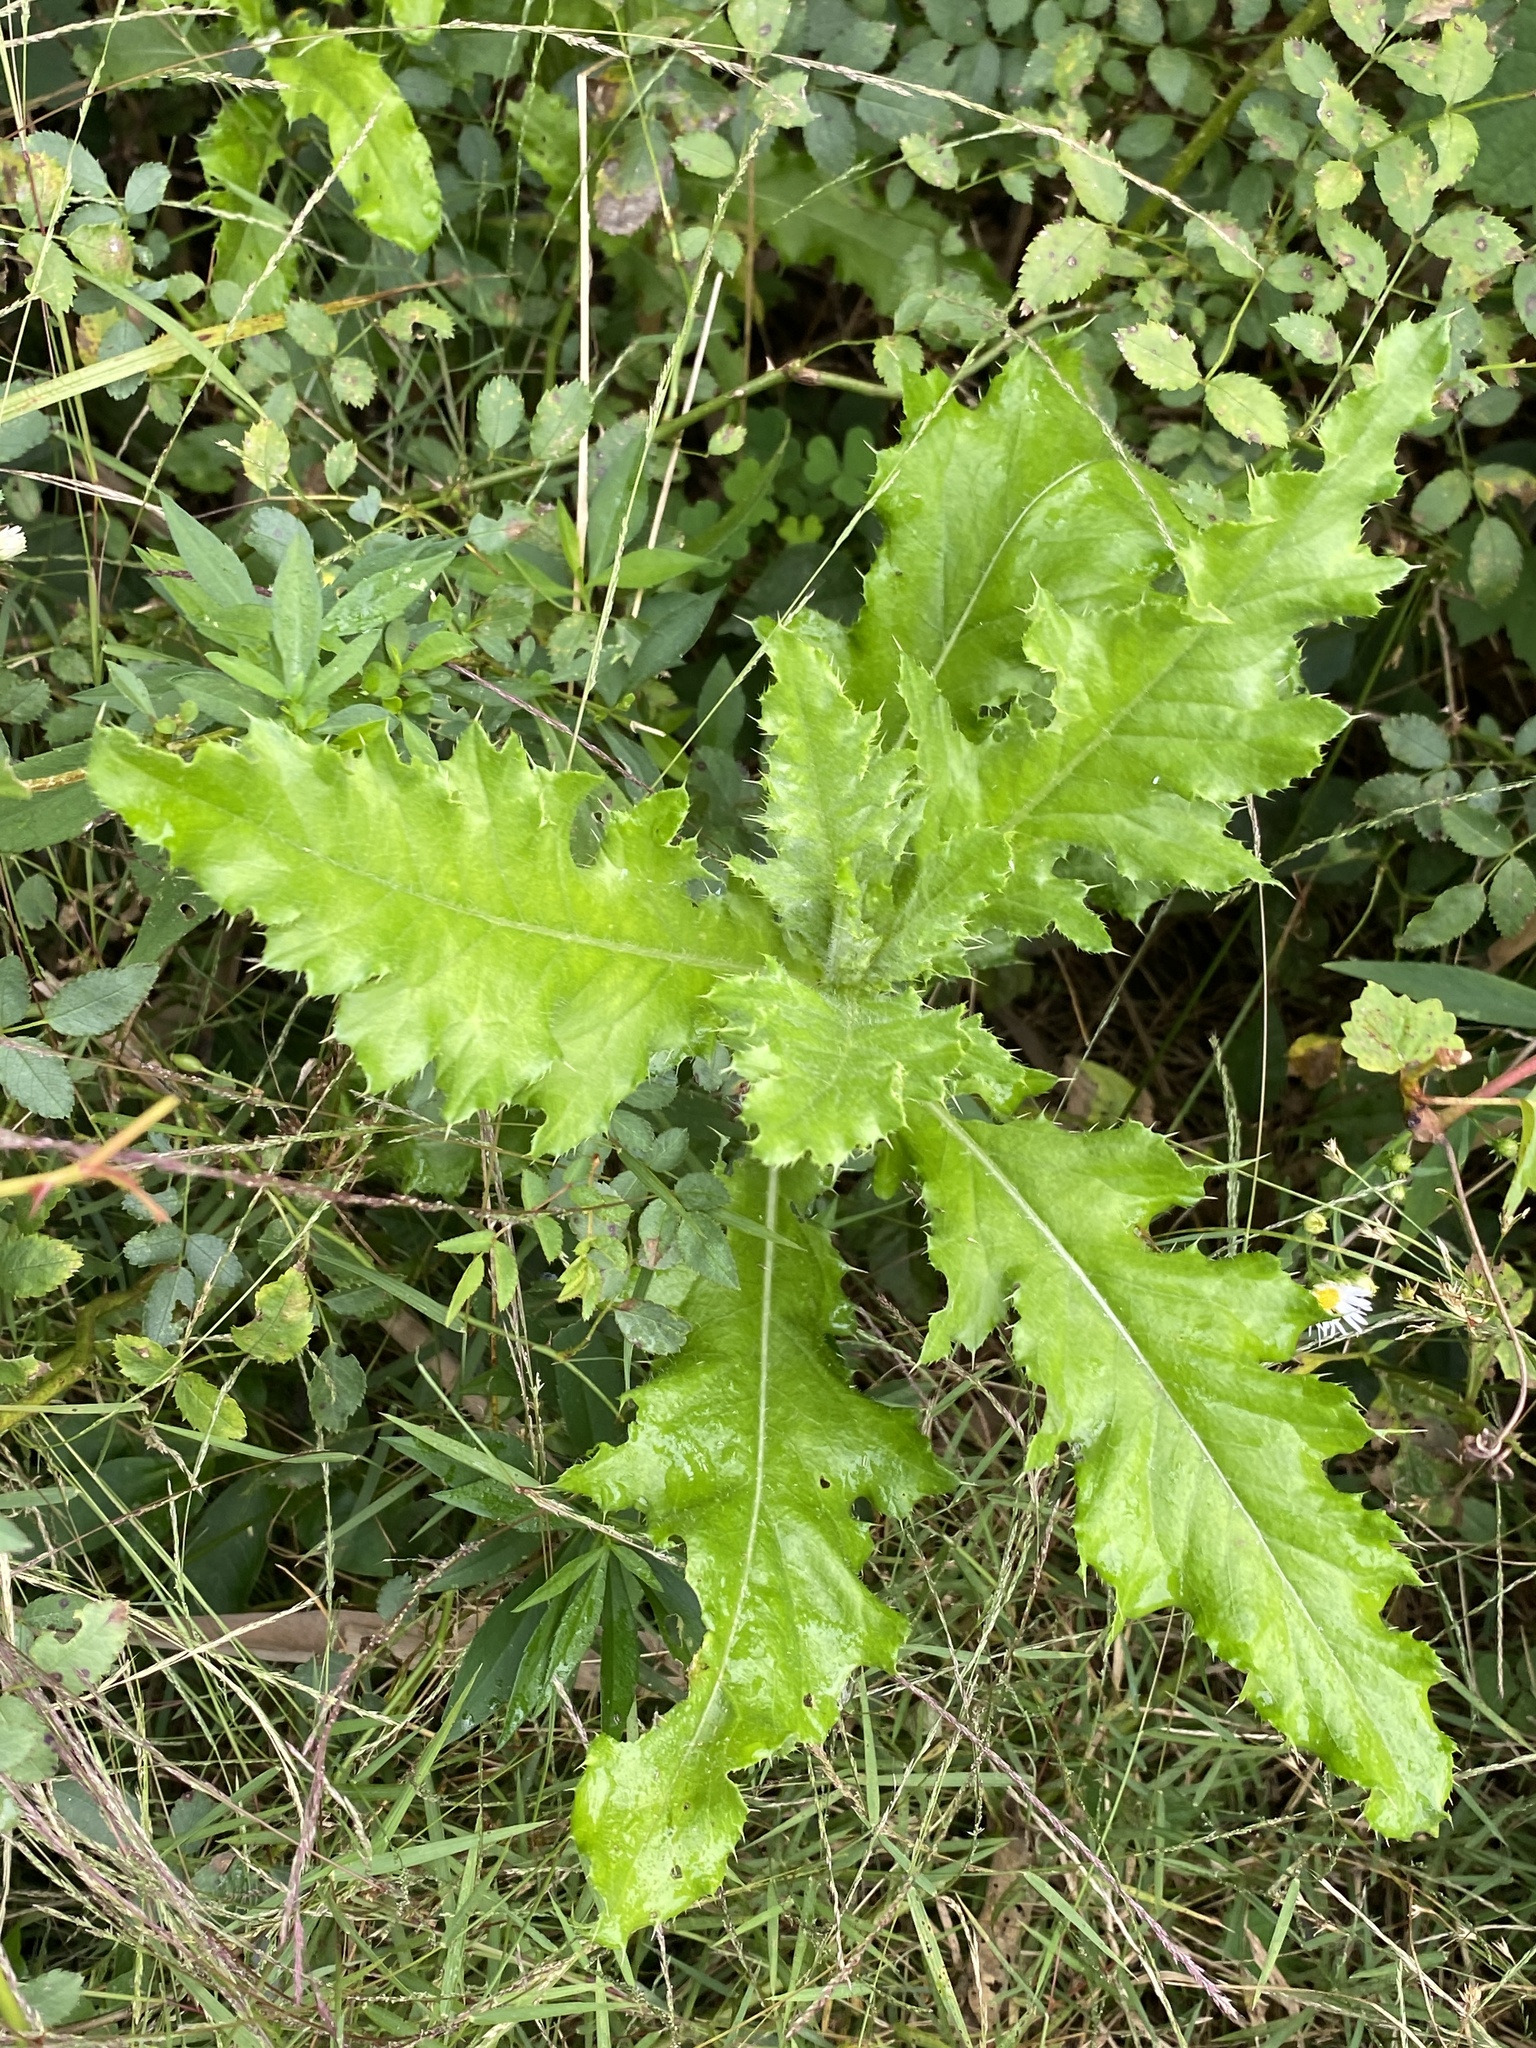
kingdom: Plantae
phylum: Tracheophyta
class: Magnoliopsida
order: Asterales
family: Asteraceae
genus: Cirsium
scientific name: Cirsium arvense
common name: Creeping thistle
